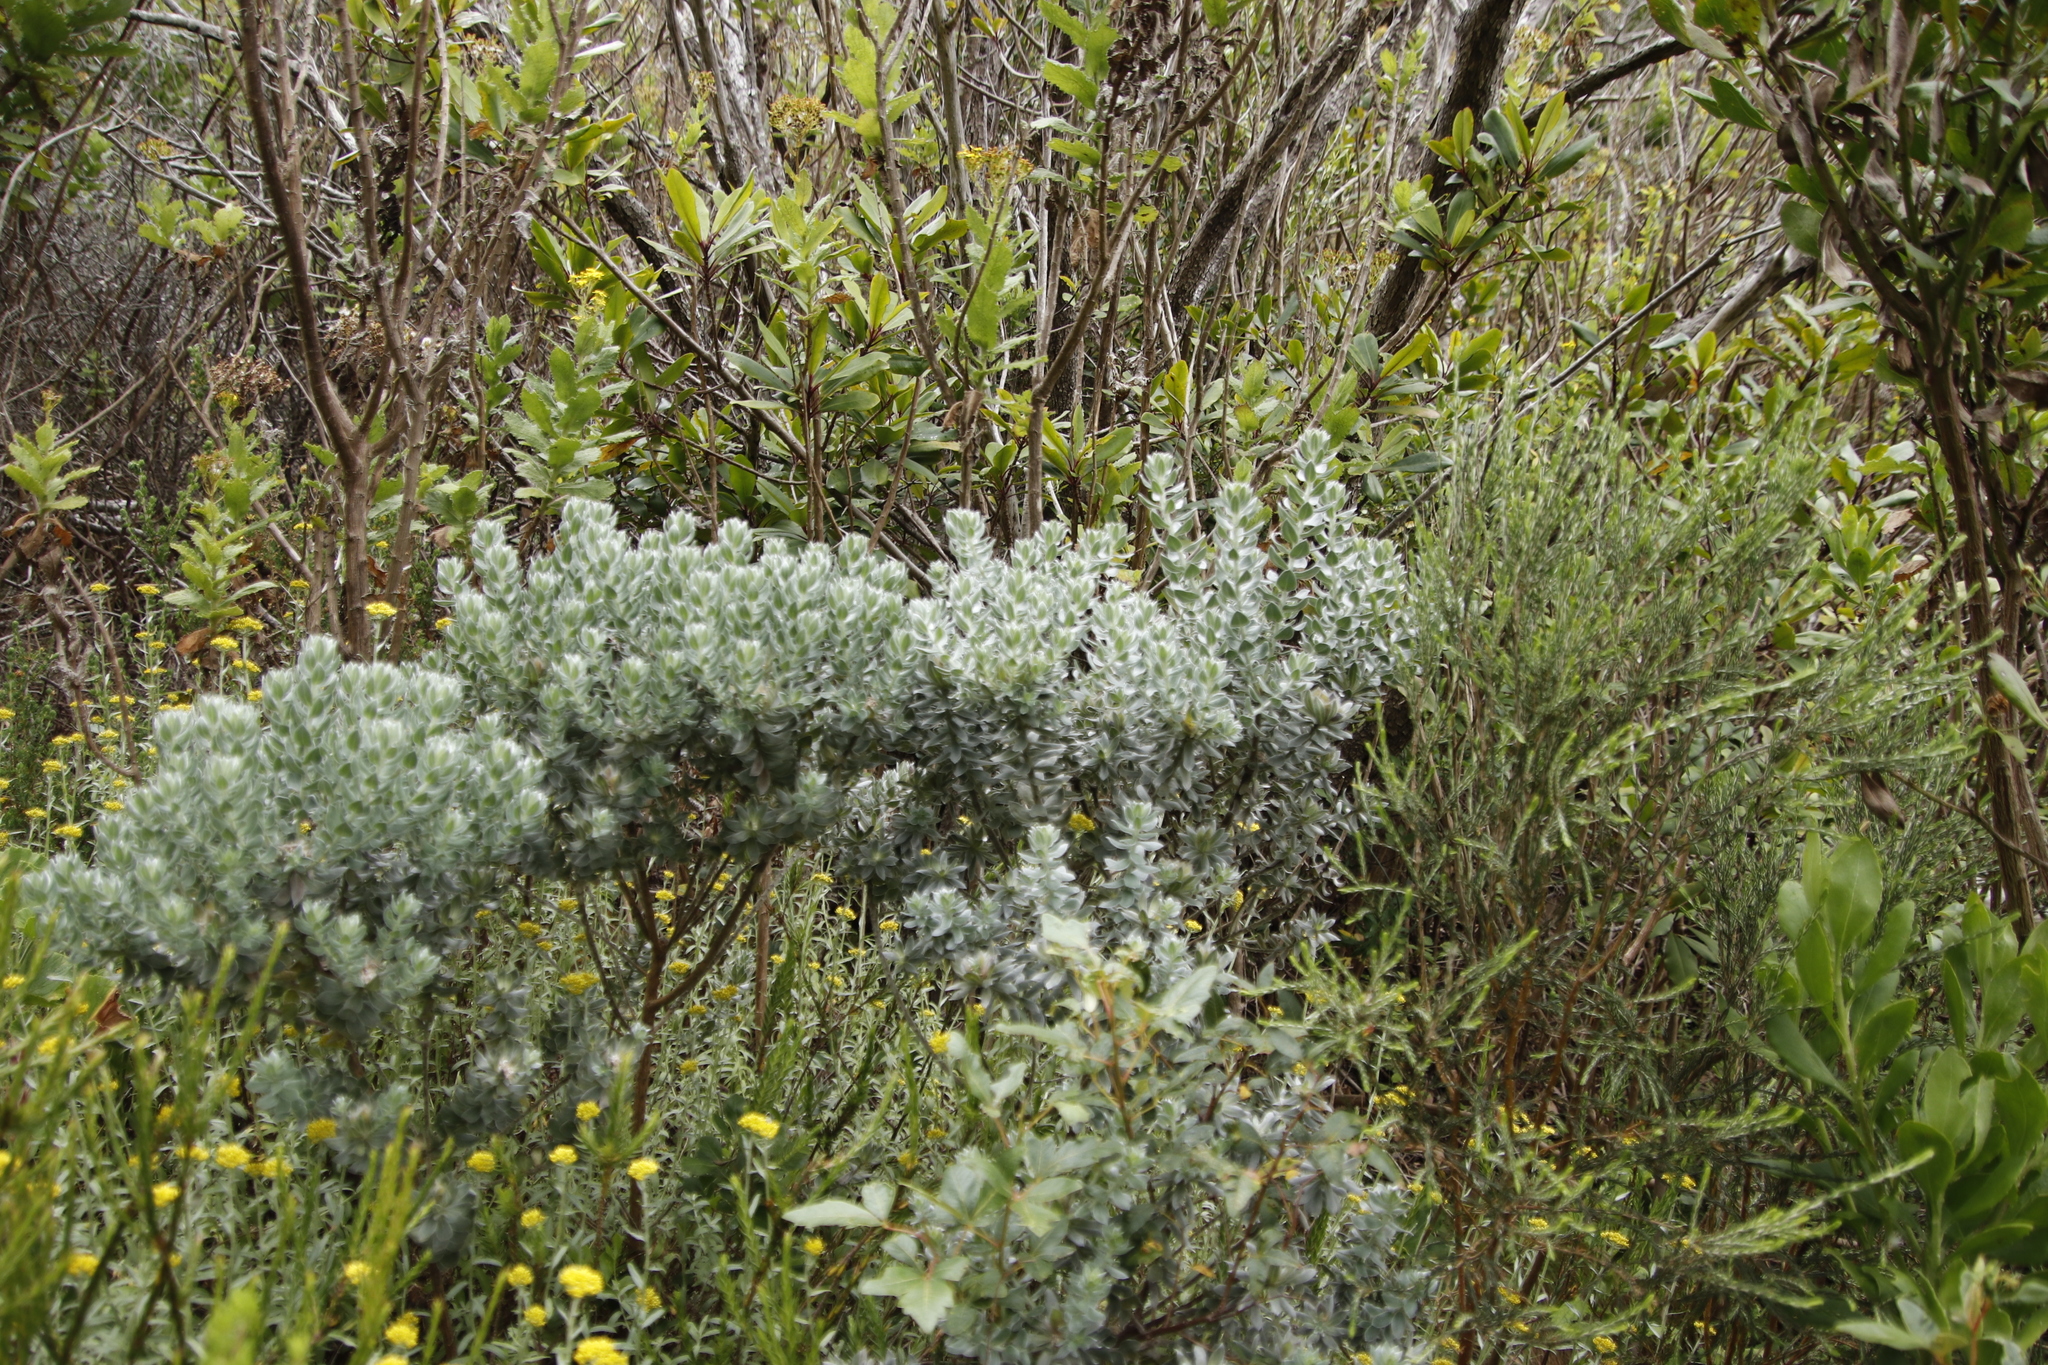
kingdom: Plantae
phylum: Tracheophyta
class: Magnoliopsida
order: Fabales
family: Fabaceae
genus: Xiphotheca
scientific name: Xiphotheca fruticosa
